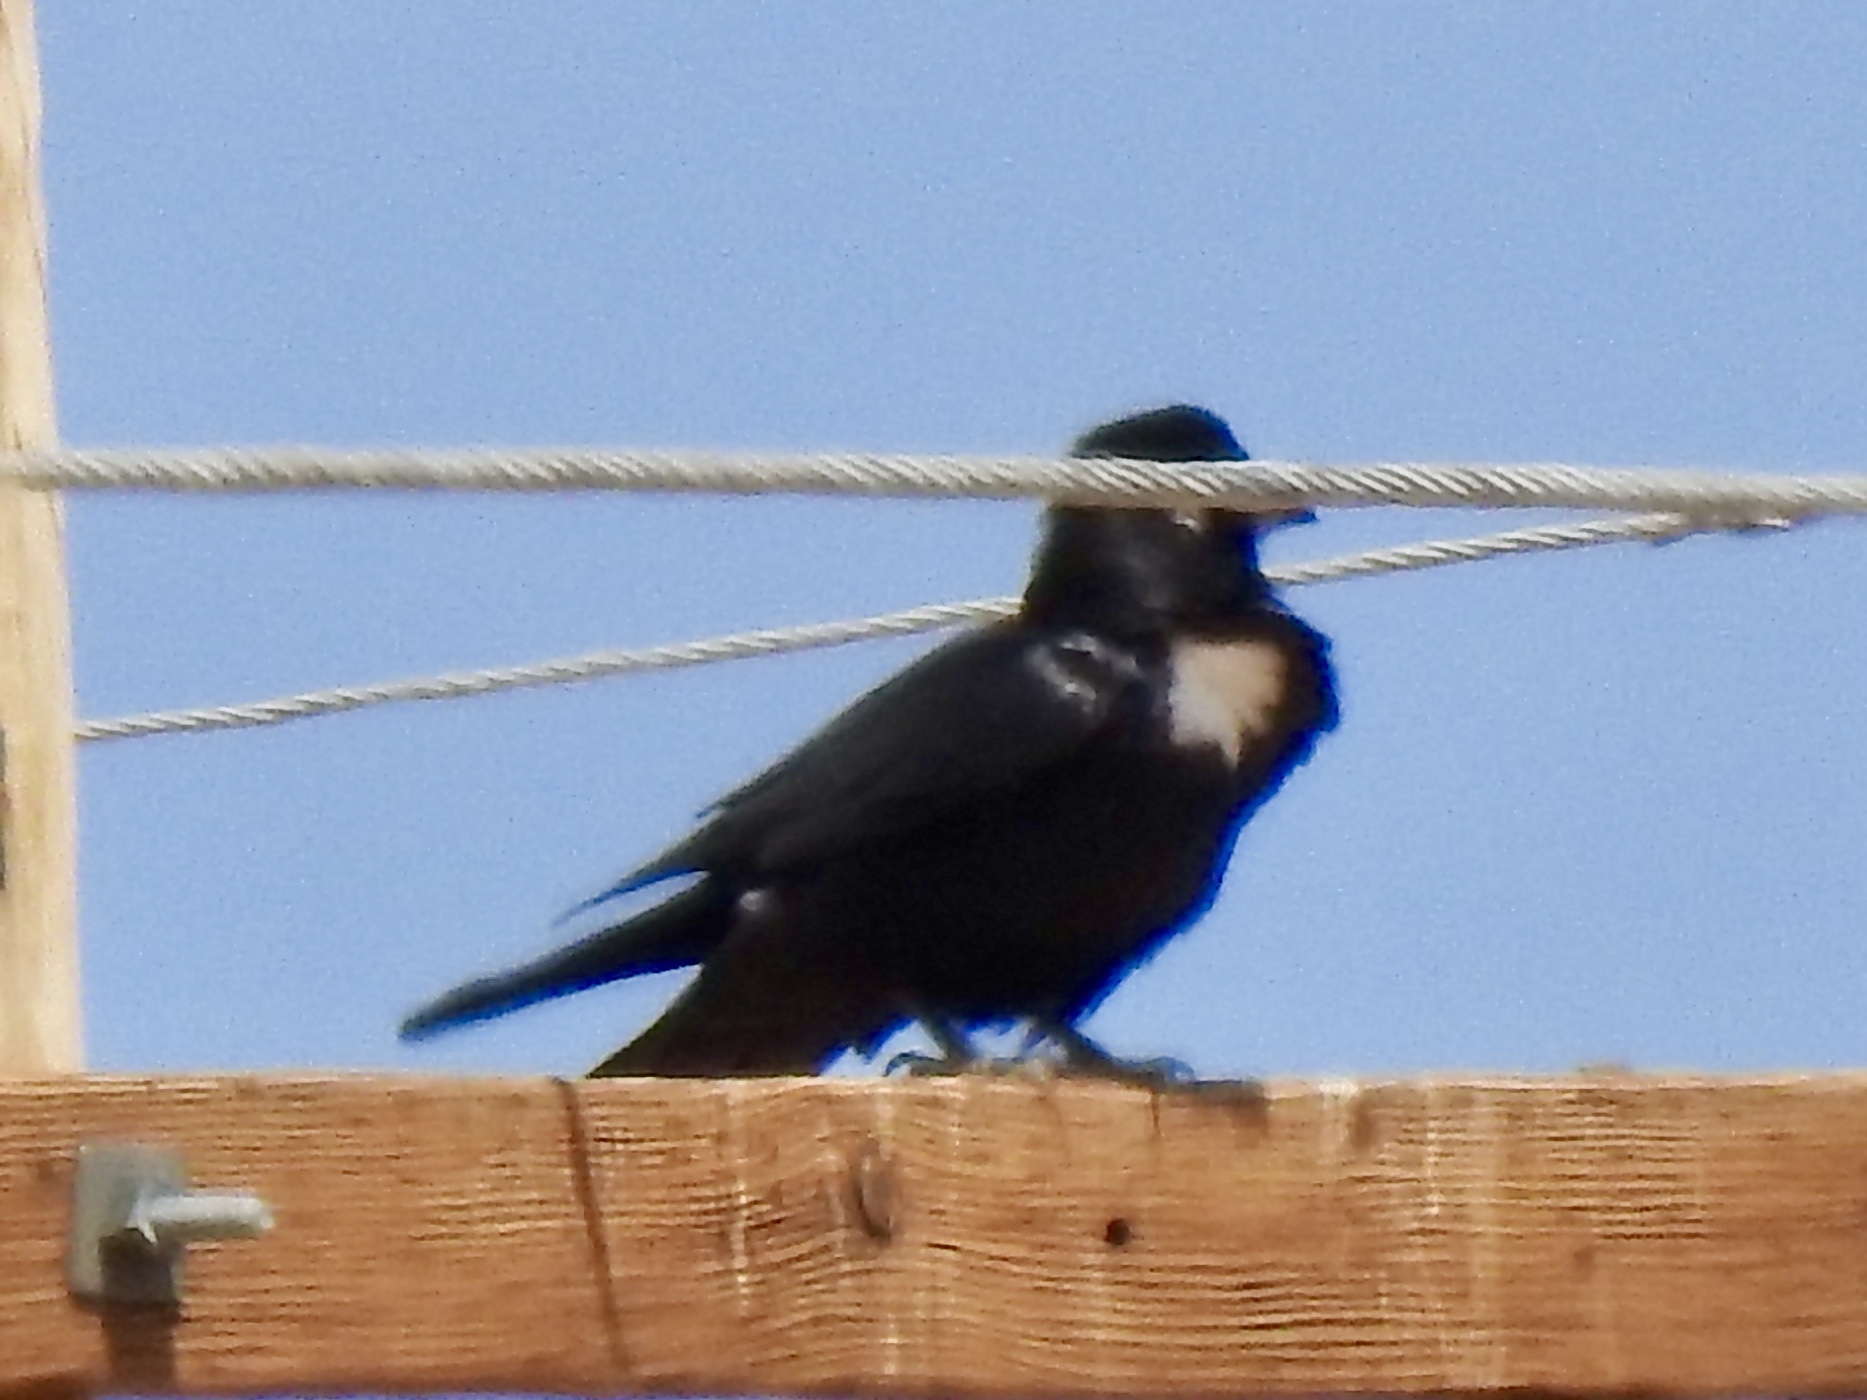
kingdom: Animalia
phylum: Chordata
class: Aves
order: Passeriformes
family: Corvidae
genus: Corvus
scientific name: Corvus cryptoleucus
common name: Chihuahuan raven
